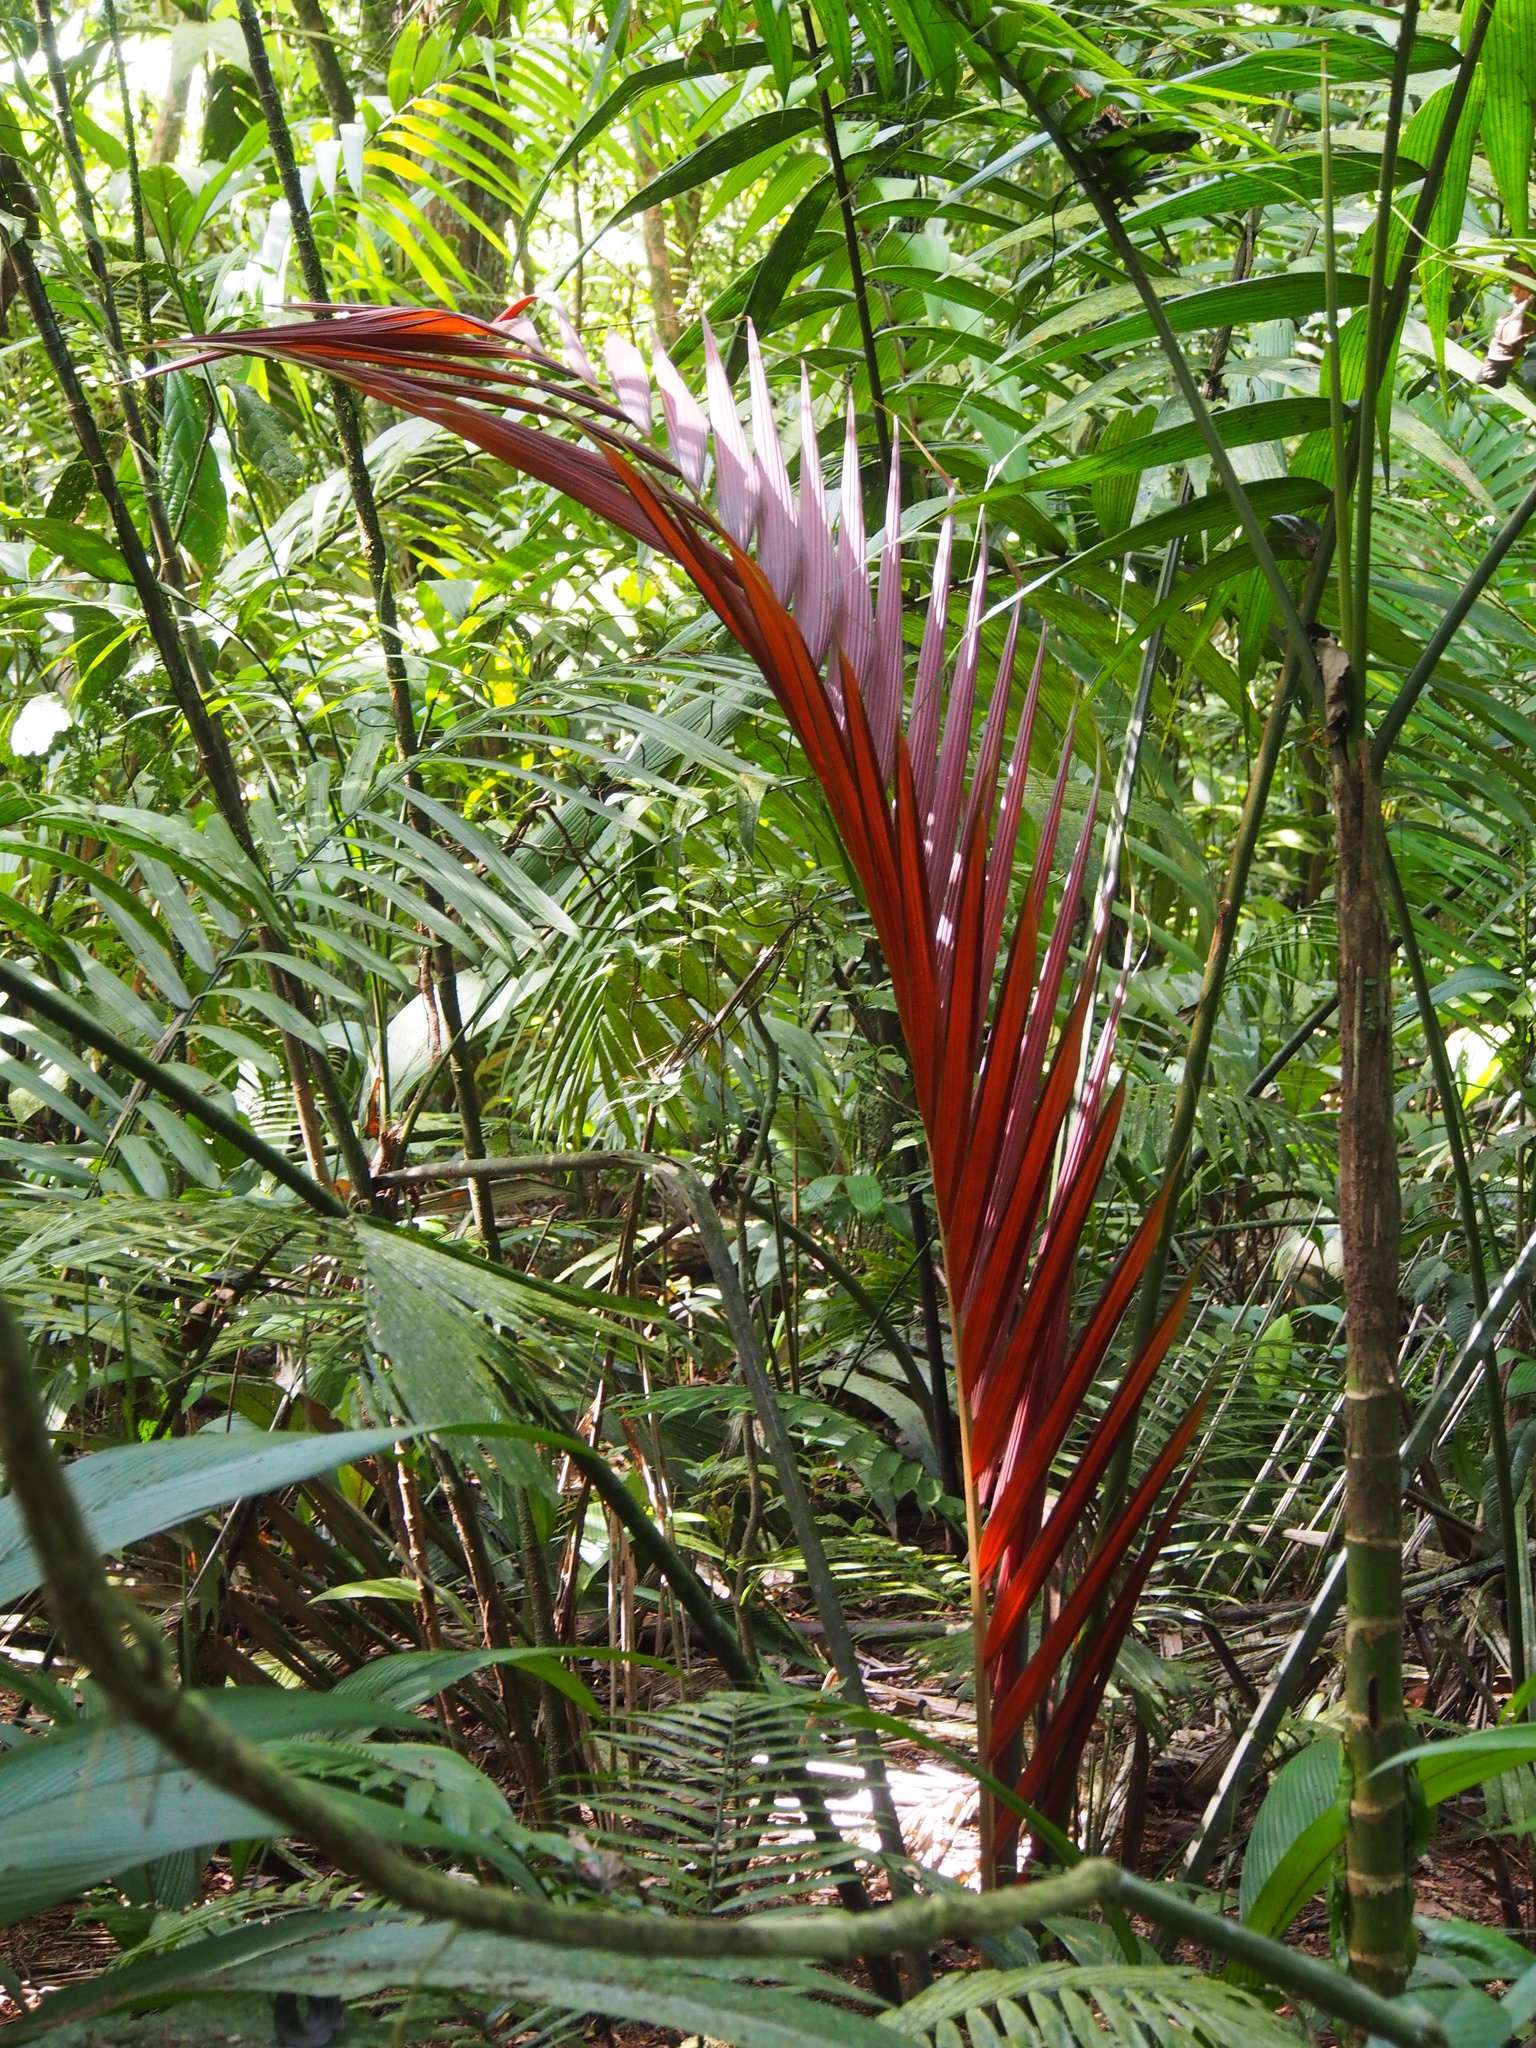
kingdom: Plantae
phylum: Tracheophyta
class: Liliopsida
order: Arecales
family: Arecaceae
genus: Welfia
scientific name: Welfia regia
